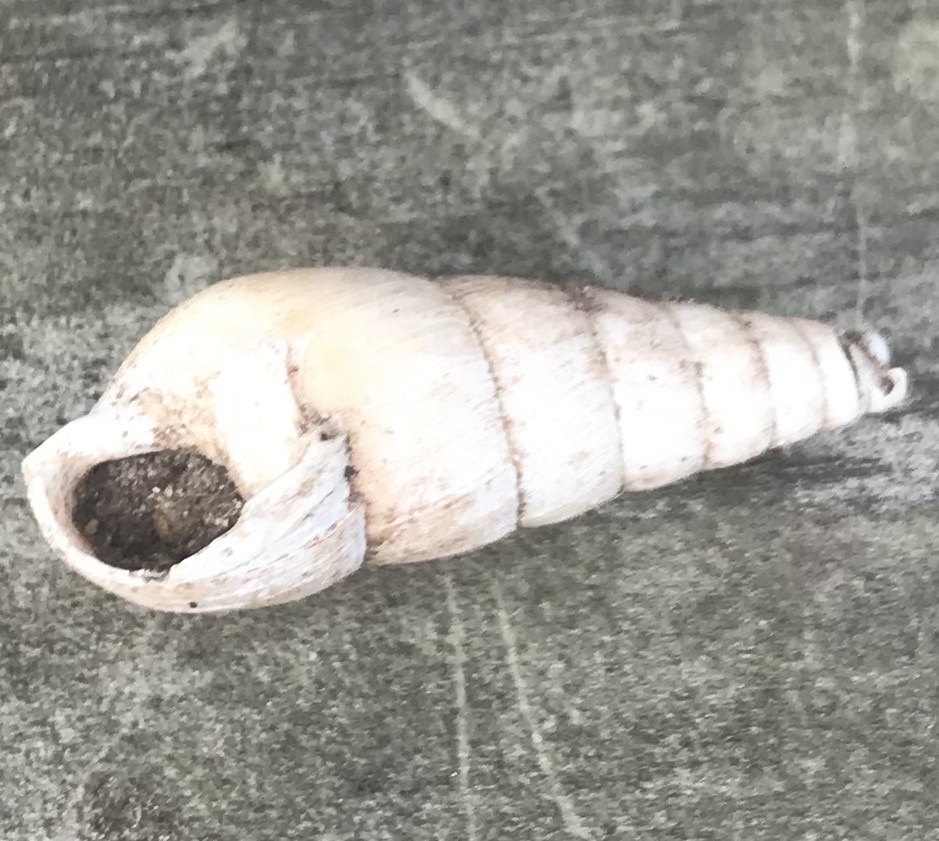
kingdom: Animalia
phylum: Mollusca
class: Gastropoda
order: Stylommatophora
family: Achatinidae
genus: Rumina
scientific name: Rumina decollata
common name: Decollate snail
